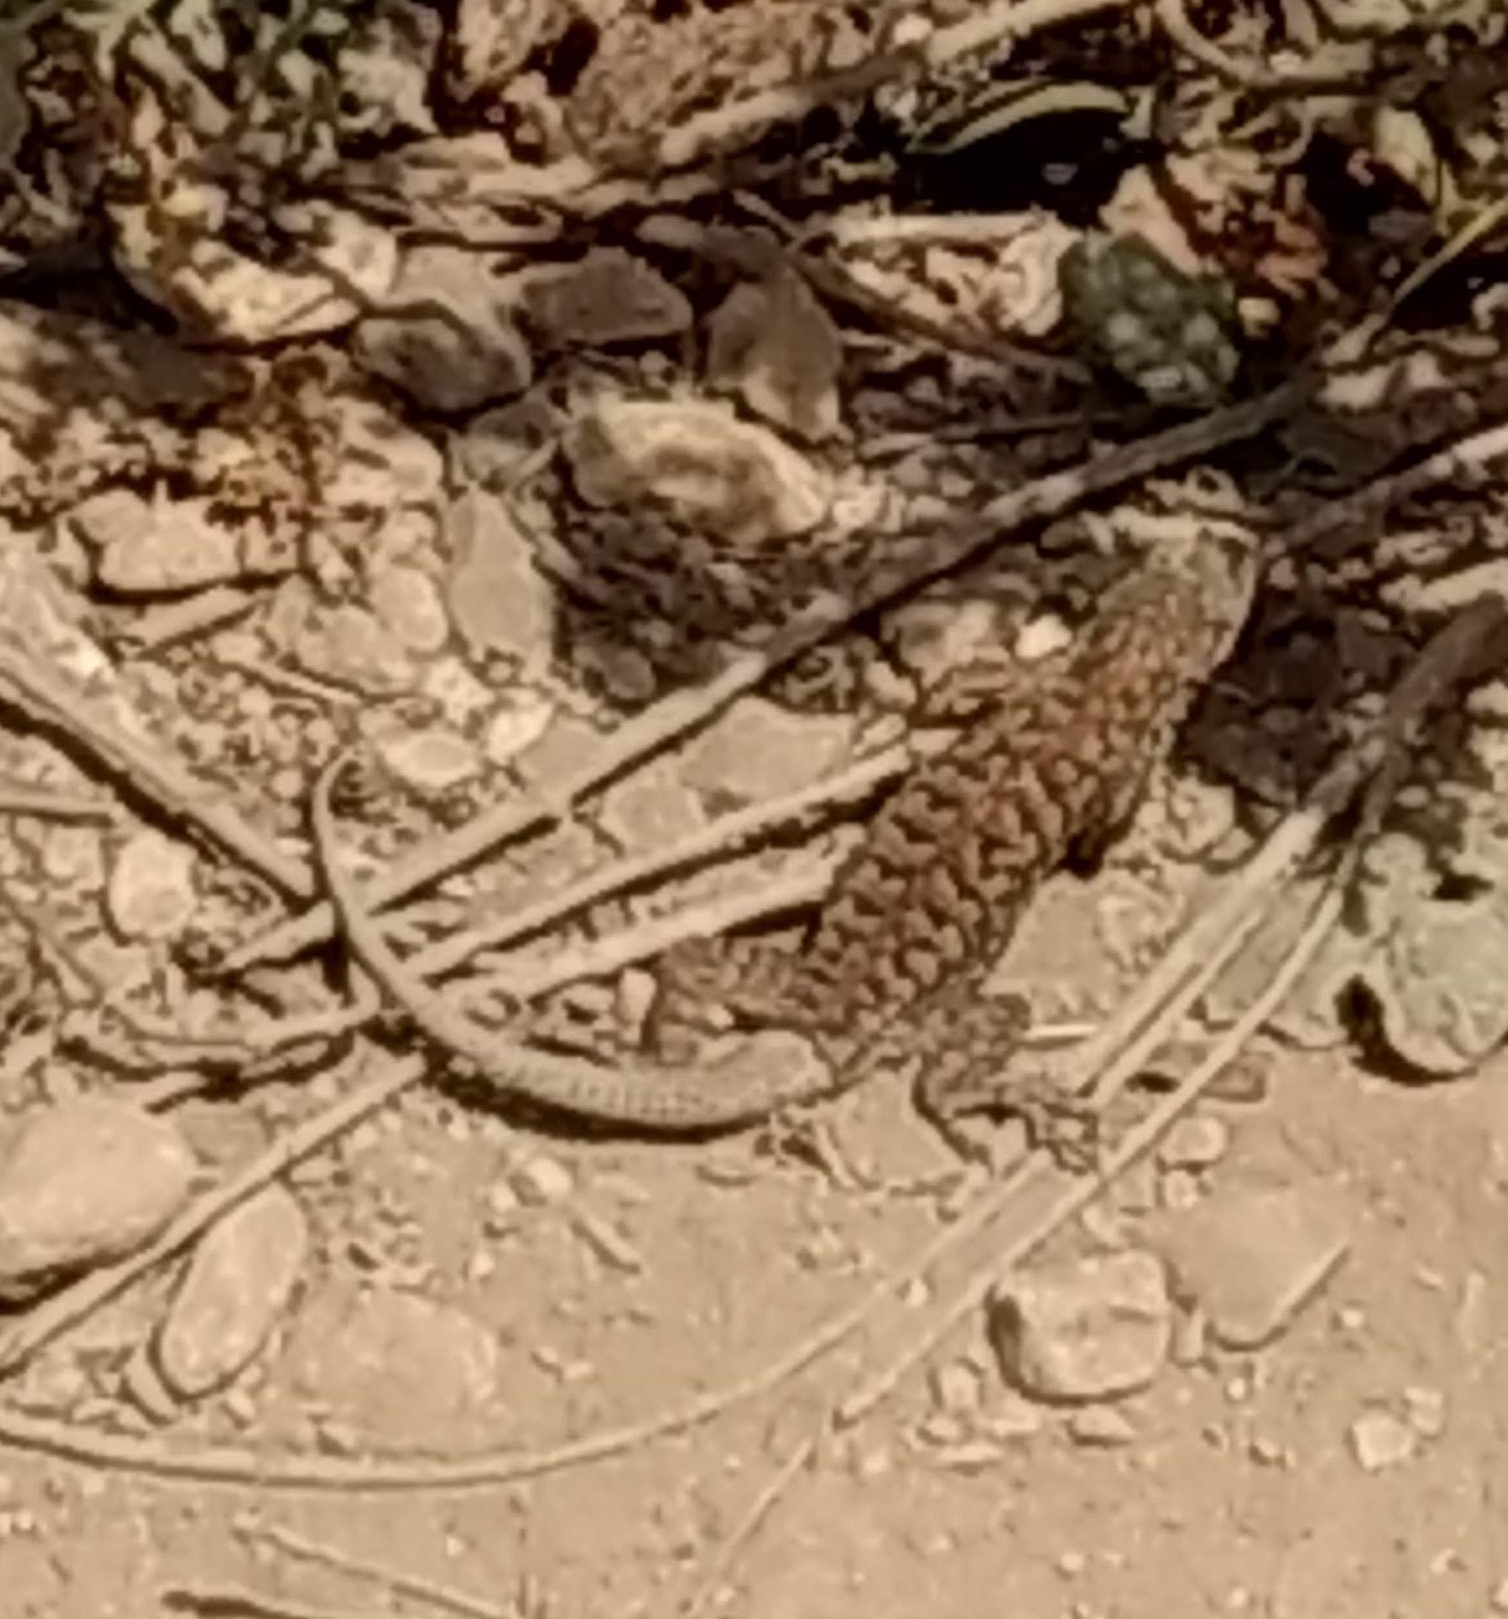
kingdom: Animalia
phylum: Chordata
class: Squamata
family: Phrynosomatidae
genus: Sceloporus
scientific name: Sceloporus occidentalis
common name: Western fence lizard
